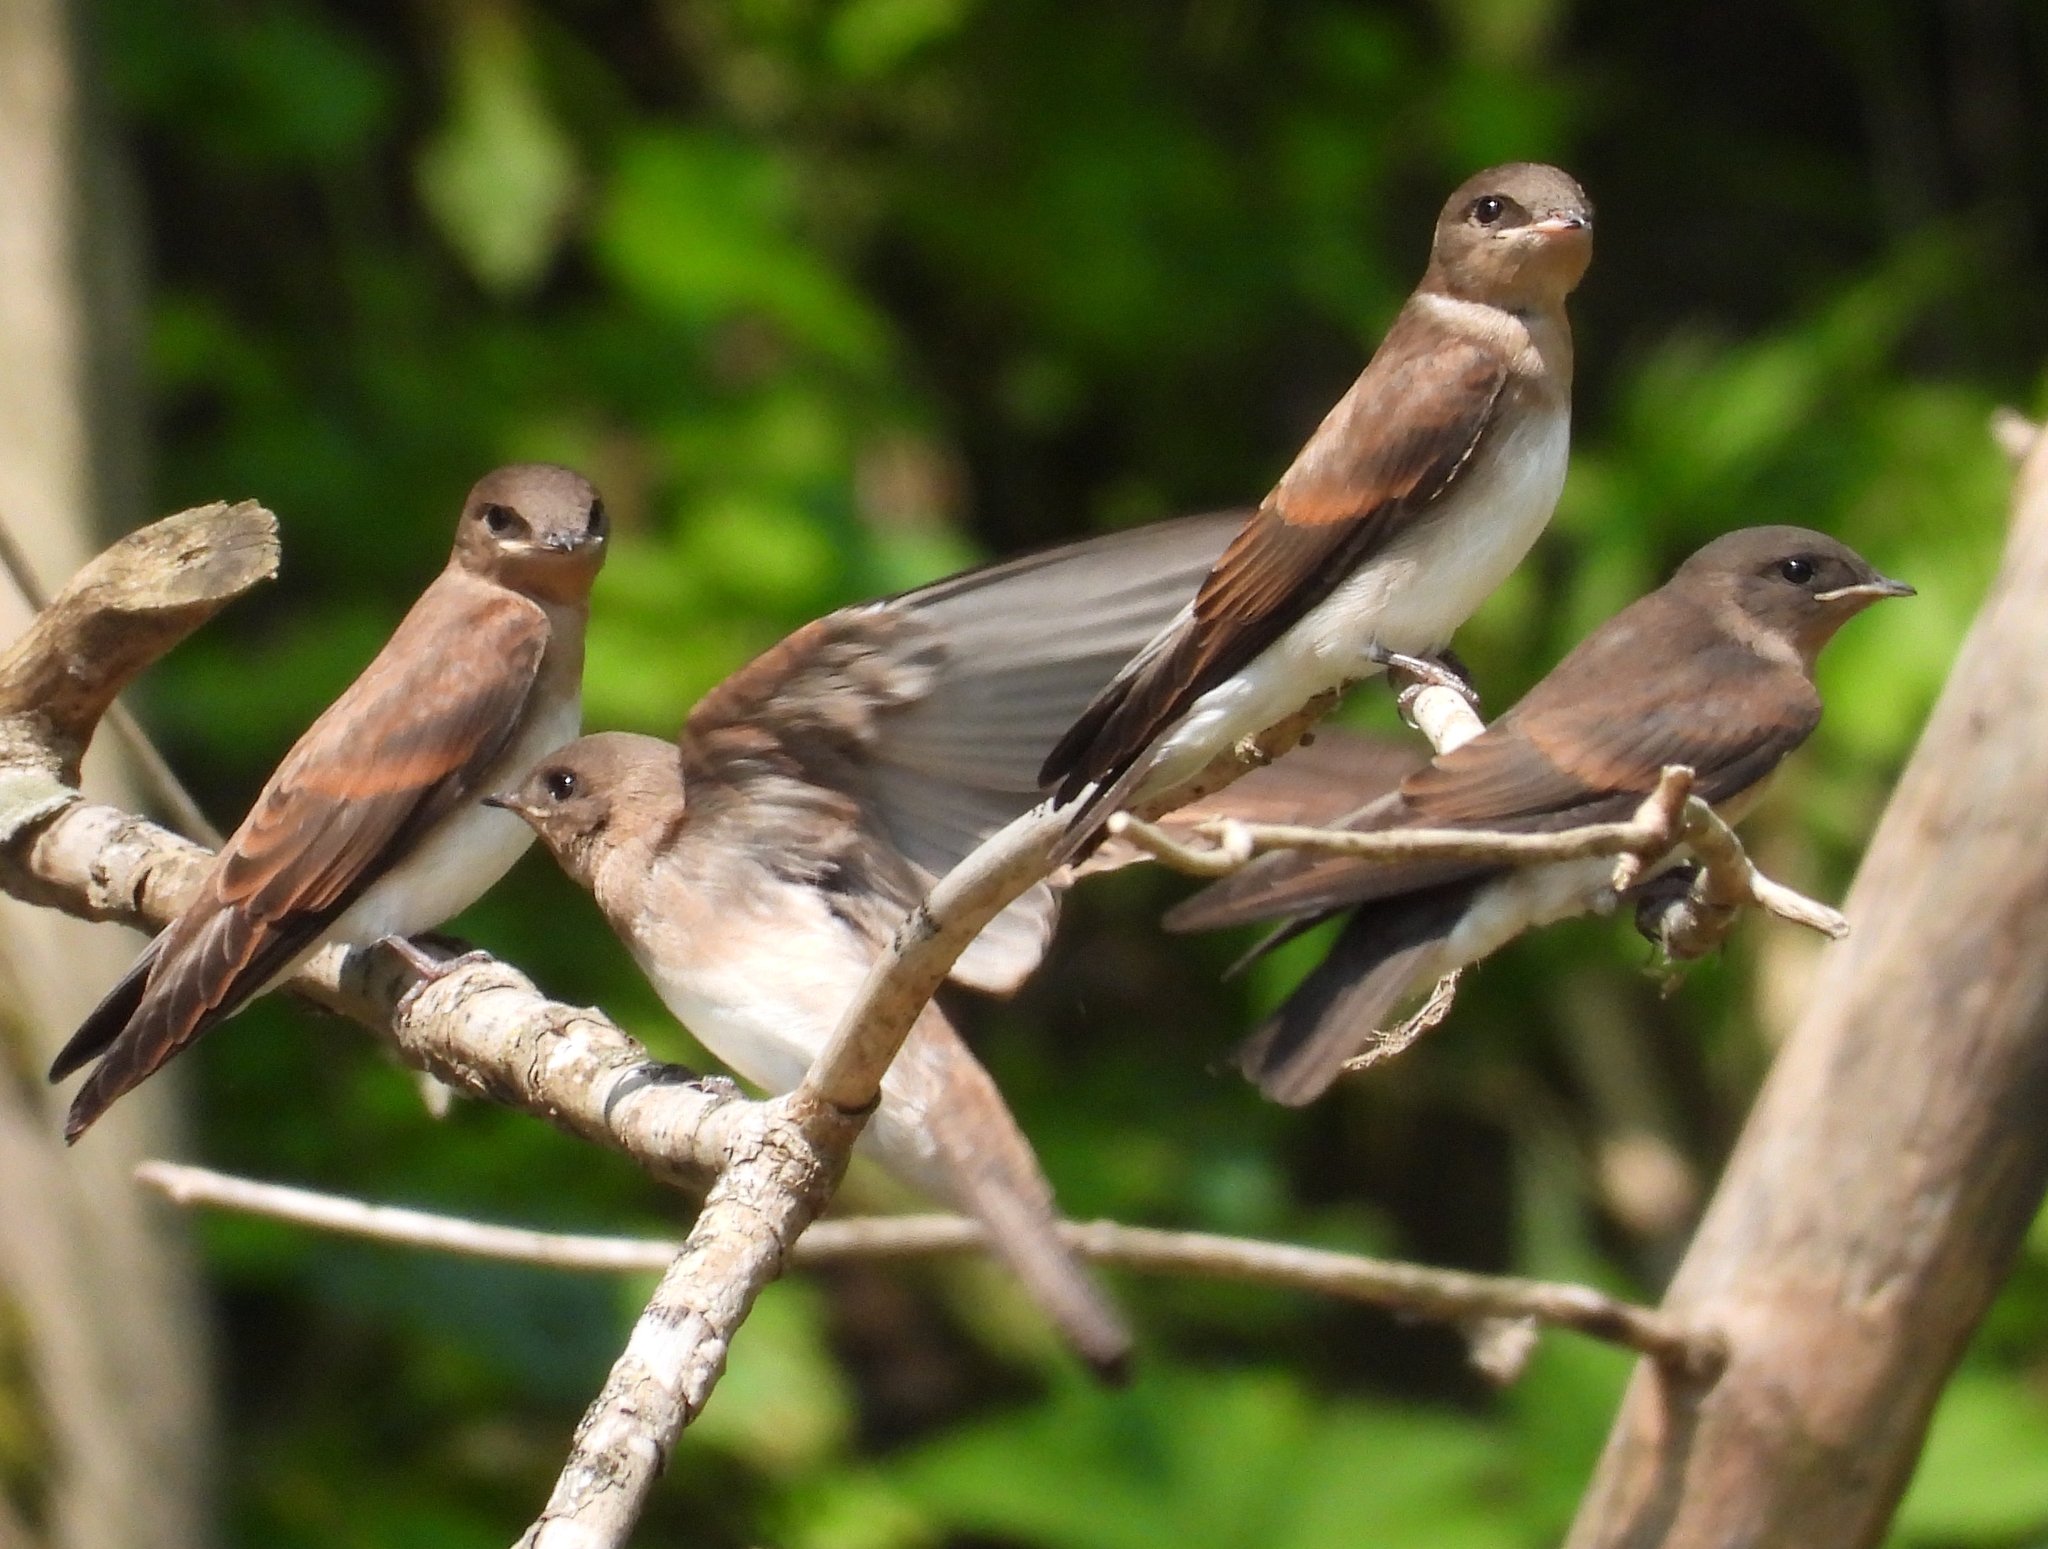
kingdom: Animalia
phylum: Chordata
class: Aves
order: Passeriformes
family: Hirundinidae
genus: Stelgidopteryx
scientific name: Stelgidopteryx serripennis
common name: Northern rough-winged swallow
